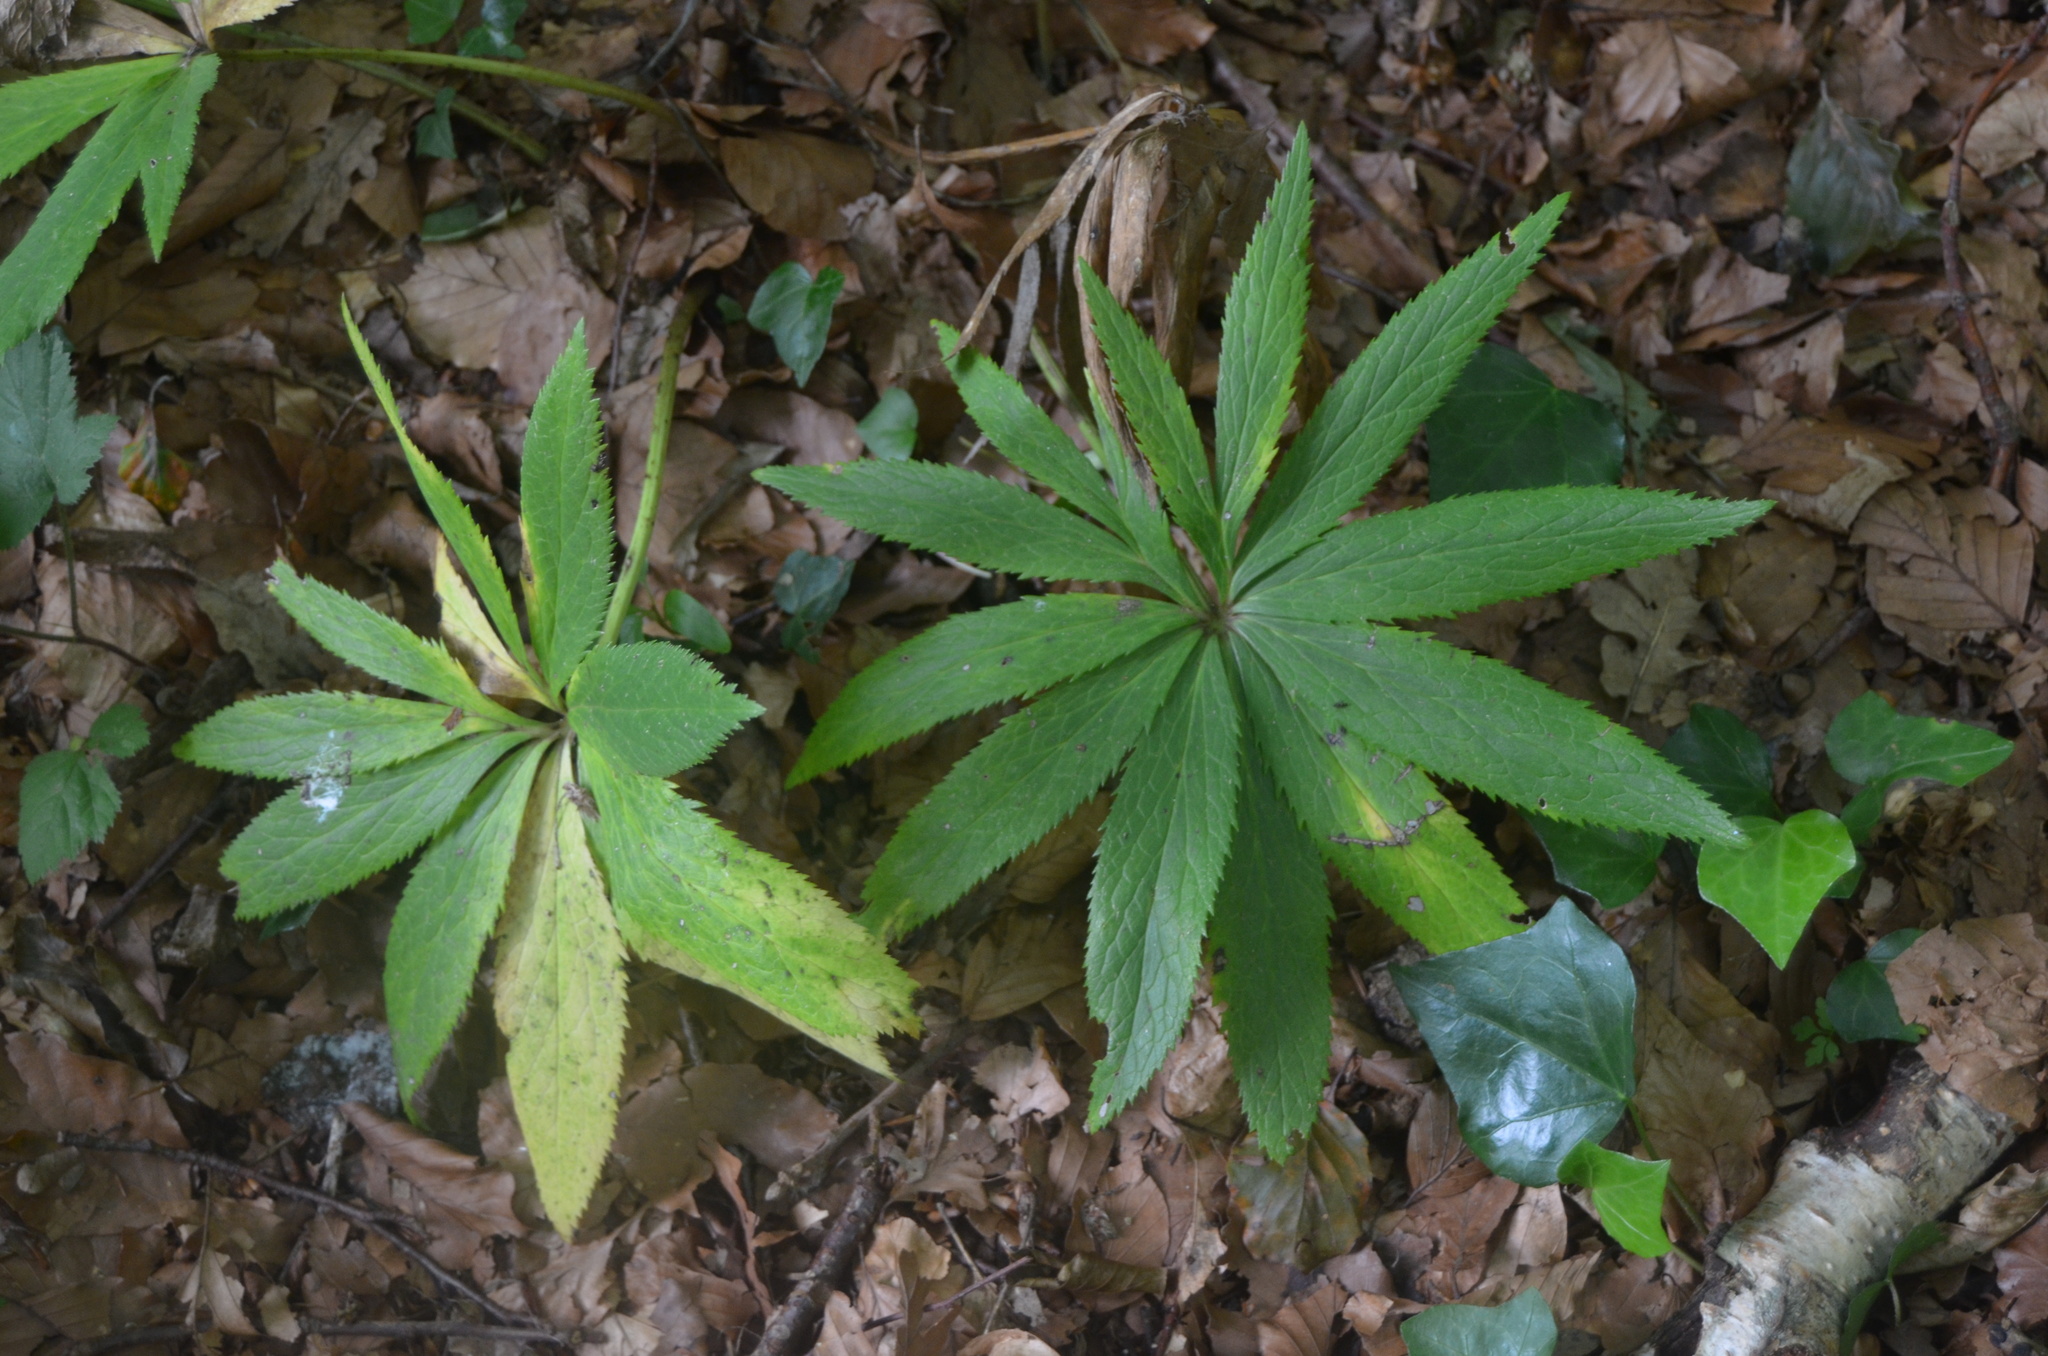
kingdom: Plantae
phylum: Tracheophyta
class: Magnoliopsida
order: Ranunculales
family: Ranunculaceae
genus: Helleborus
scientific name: Helleborus viridis
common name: Green hellebore
